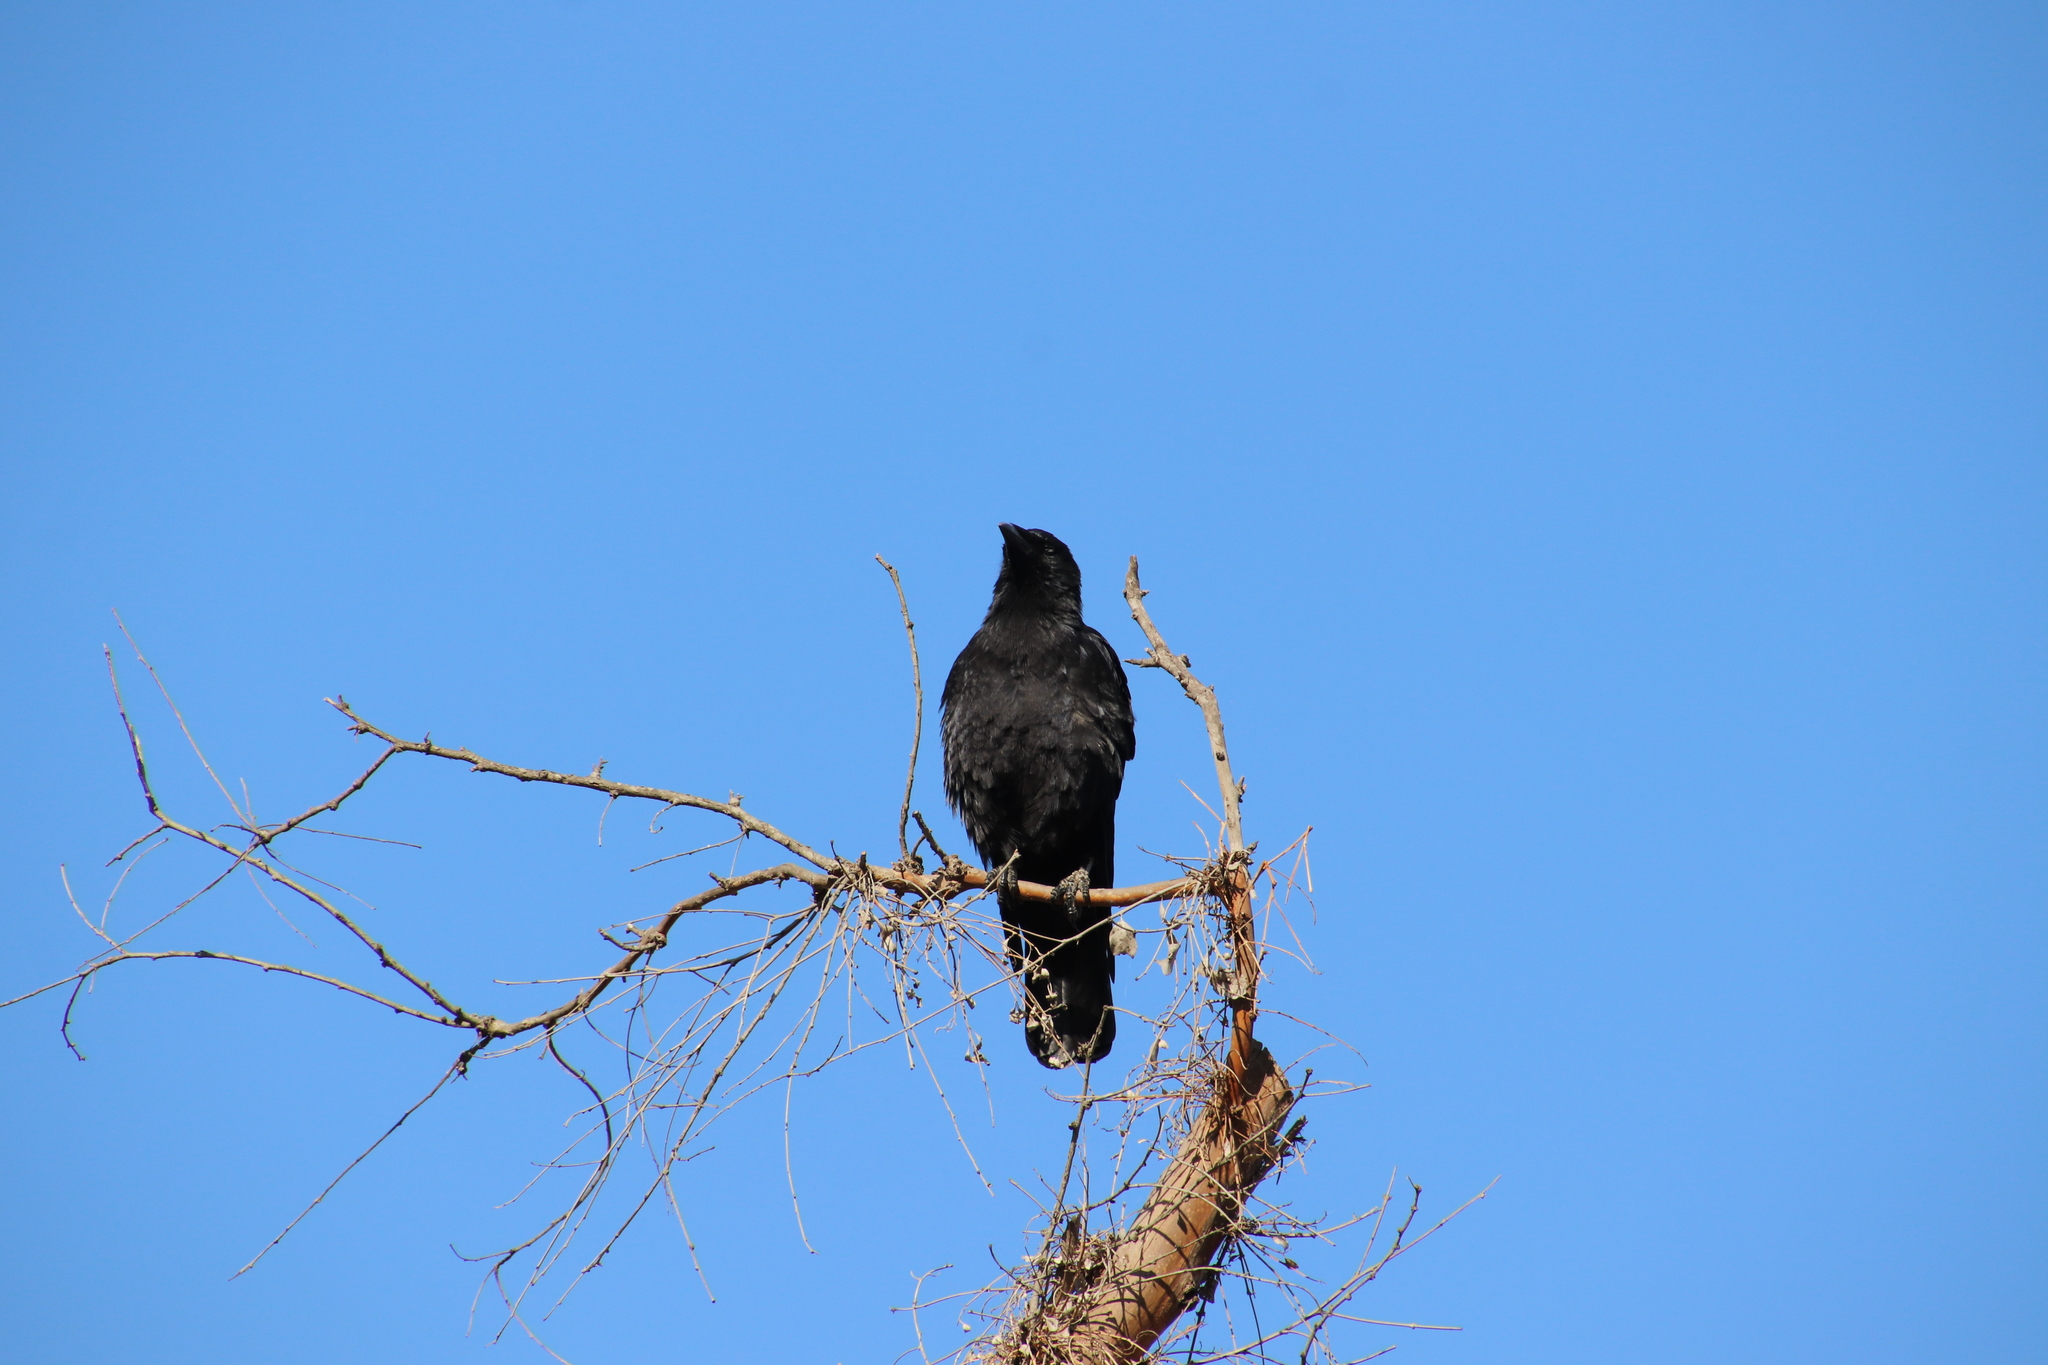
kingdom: Animalia
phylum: Chordata
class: Aves
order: Passeriformes
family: Corvidae
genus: Corvus
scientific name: Corvus brachyrhynchos
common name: American crow
